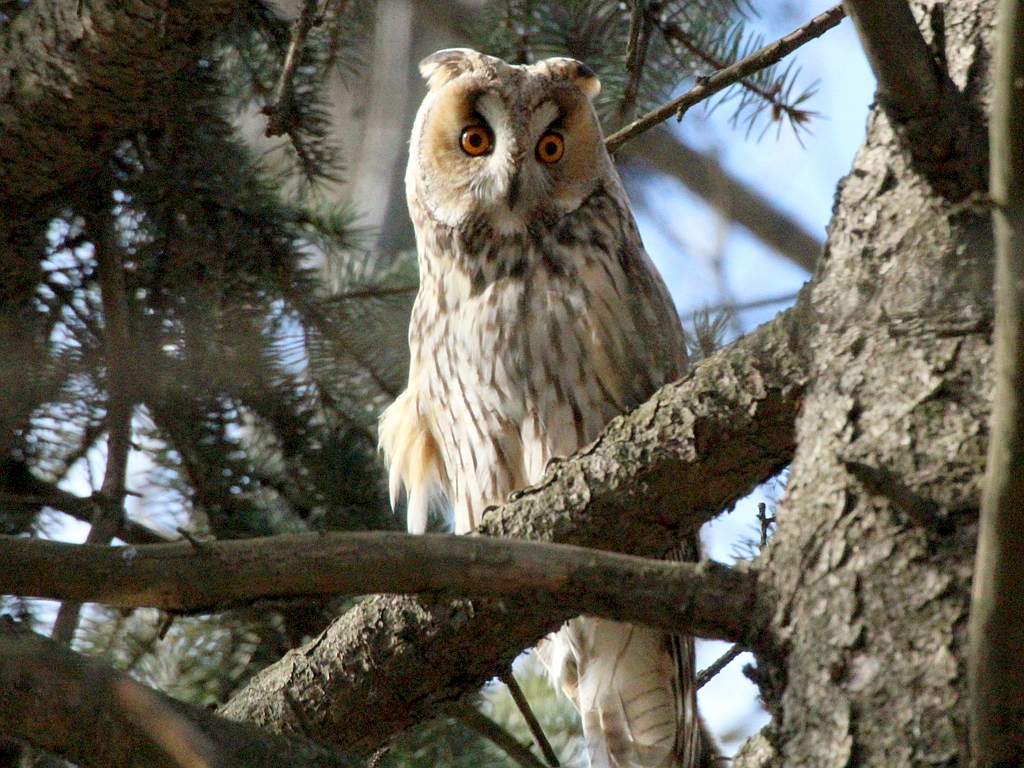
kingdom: Animalia
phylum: Chordata
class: Aves
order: Strigiformes
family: Strigidae
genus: Asio
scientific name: Asio otus
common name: Long-eared owl
